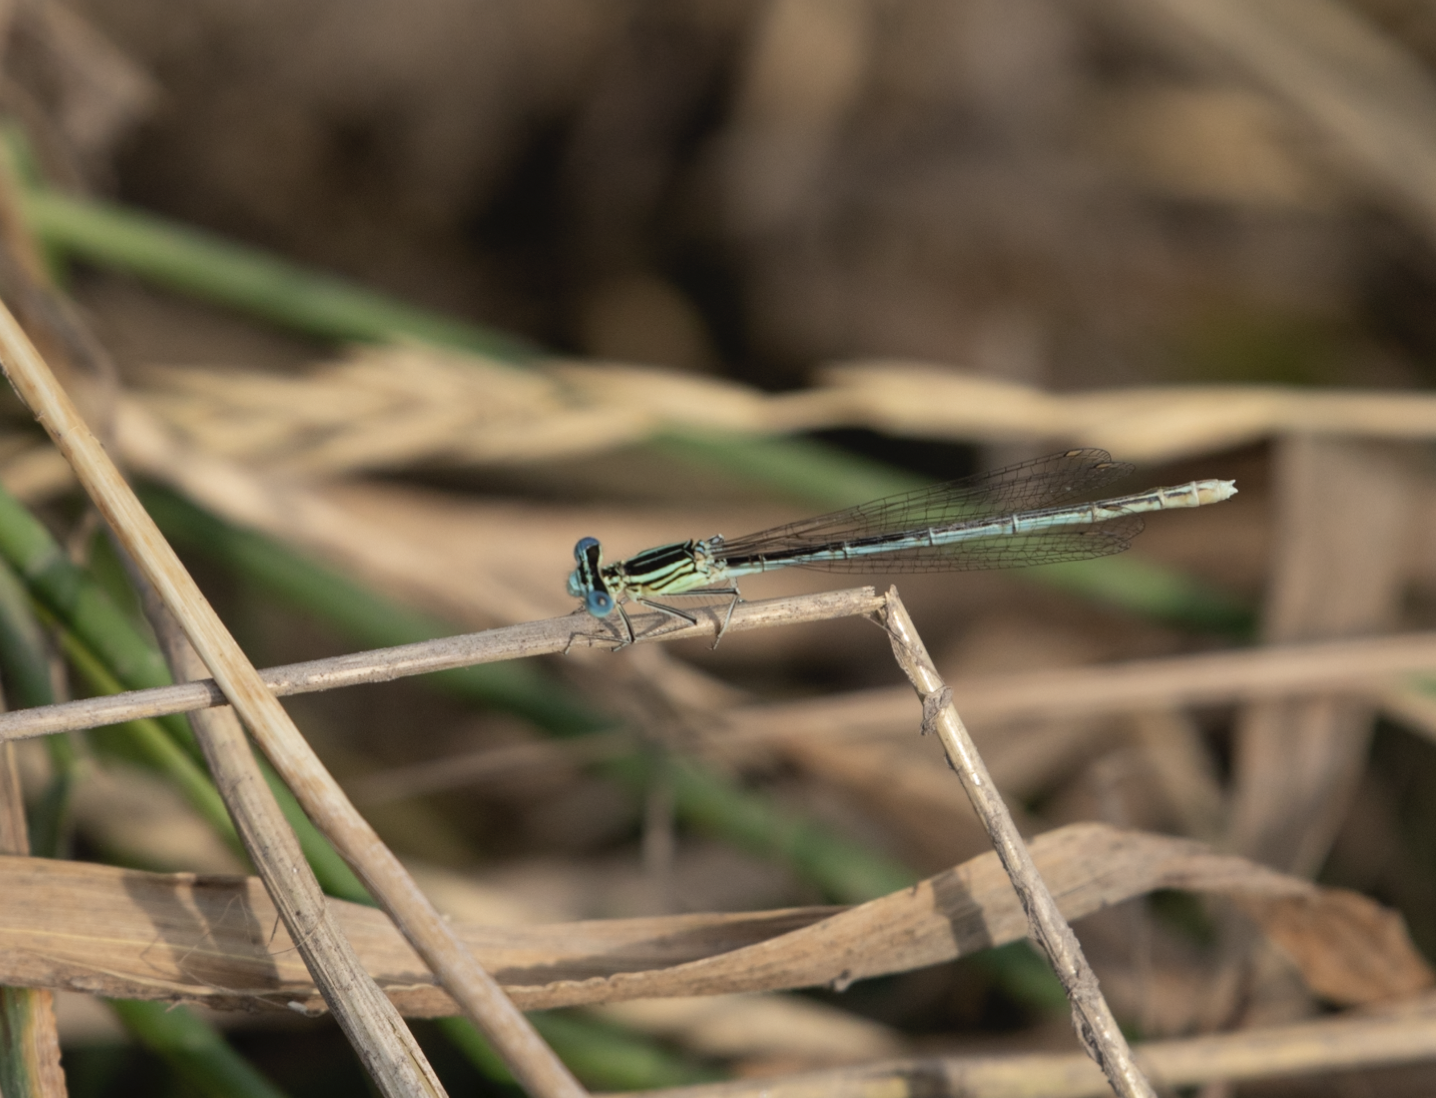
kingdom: Animalia
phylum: Arthropoda
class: Insecta
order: Odonata
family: Platycnemididae
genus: Platycnemis
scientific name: Platycnemis pennipes
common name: White-legged damselfly
